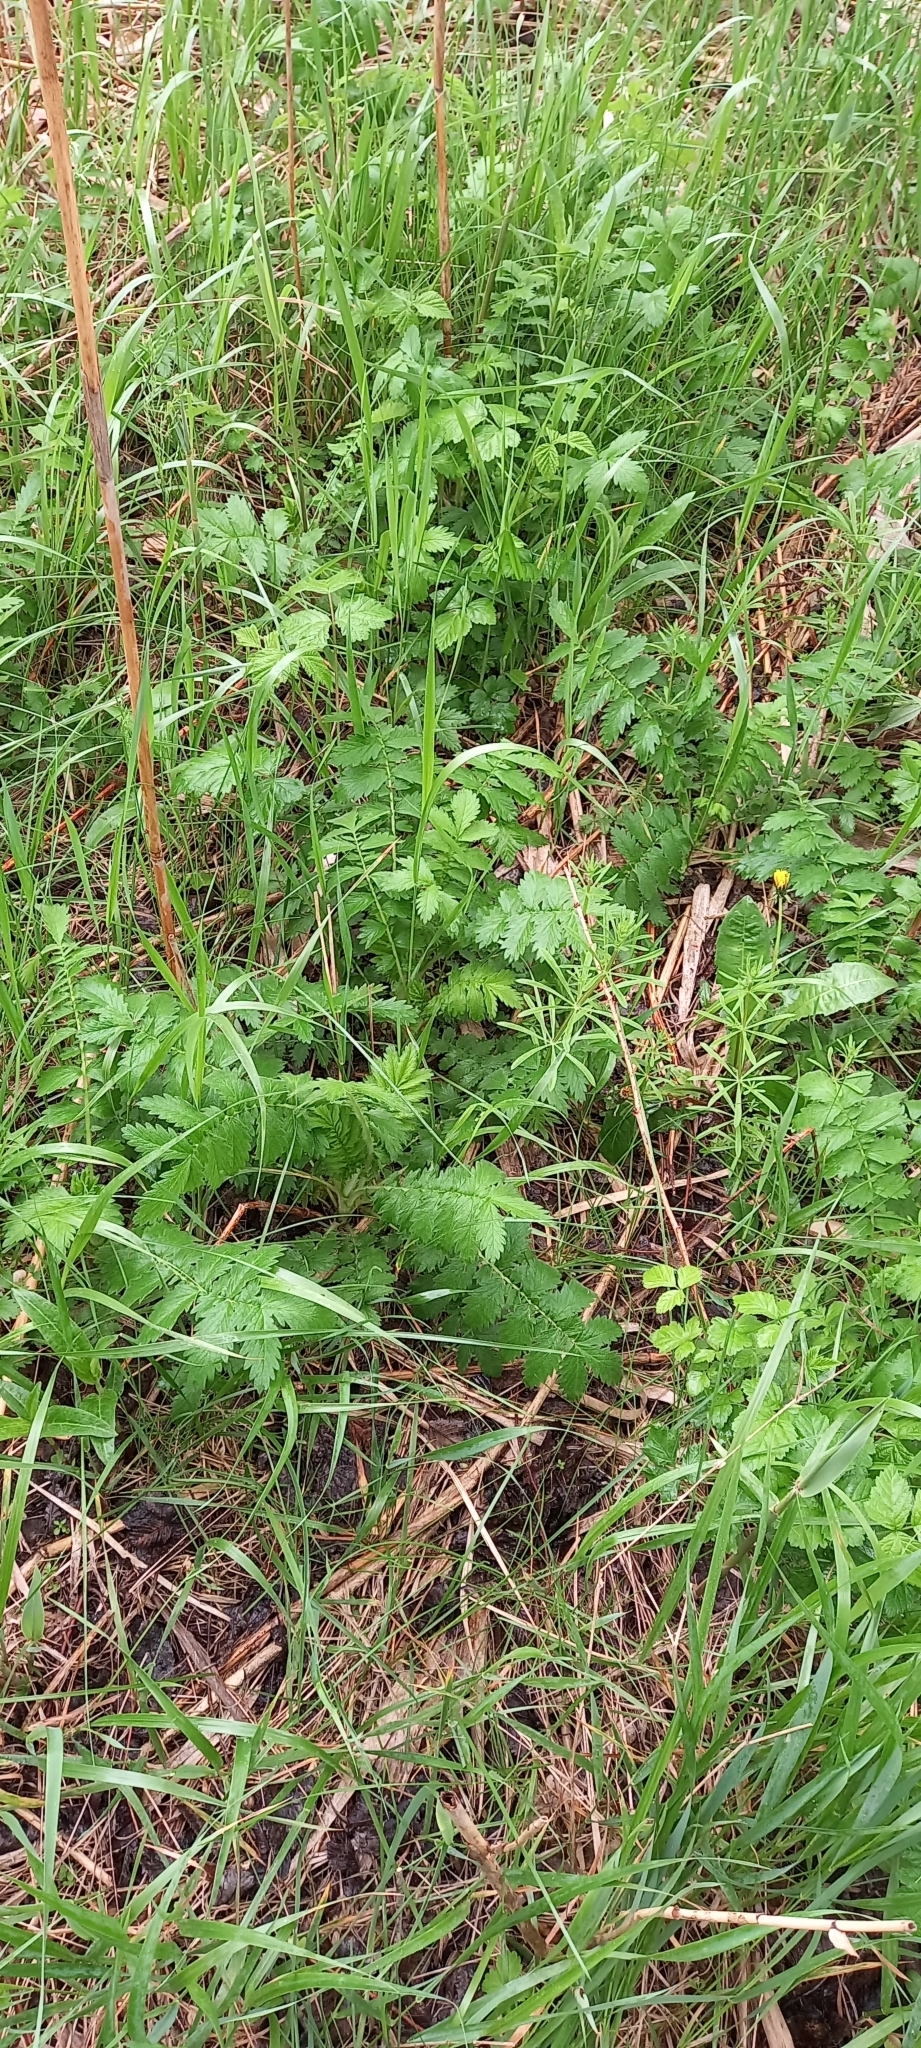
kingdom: Plantae
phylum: Tracheophyta
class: Magnoliopsida
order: Rosales
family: Rosaceae
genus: Agrimonia
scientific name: Agrimonia eupatoria
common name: Agrimony
